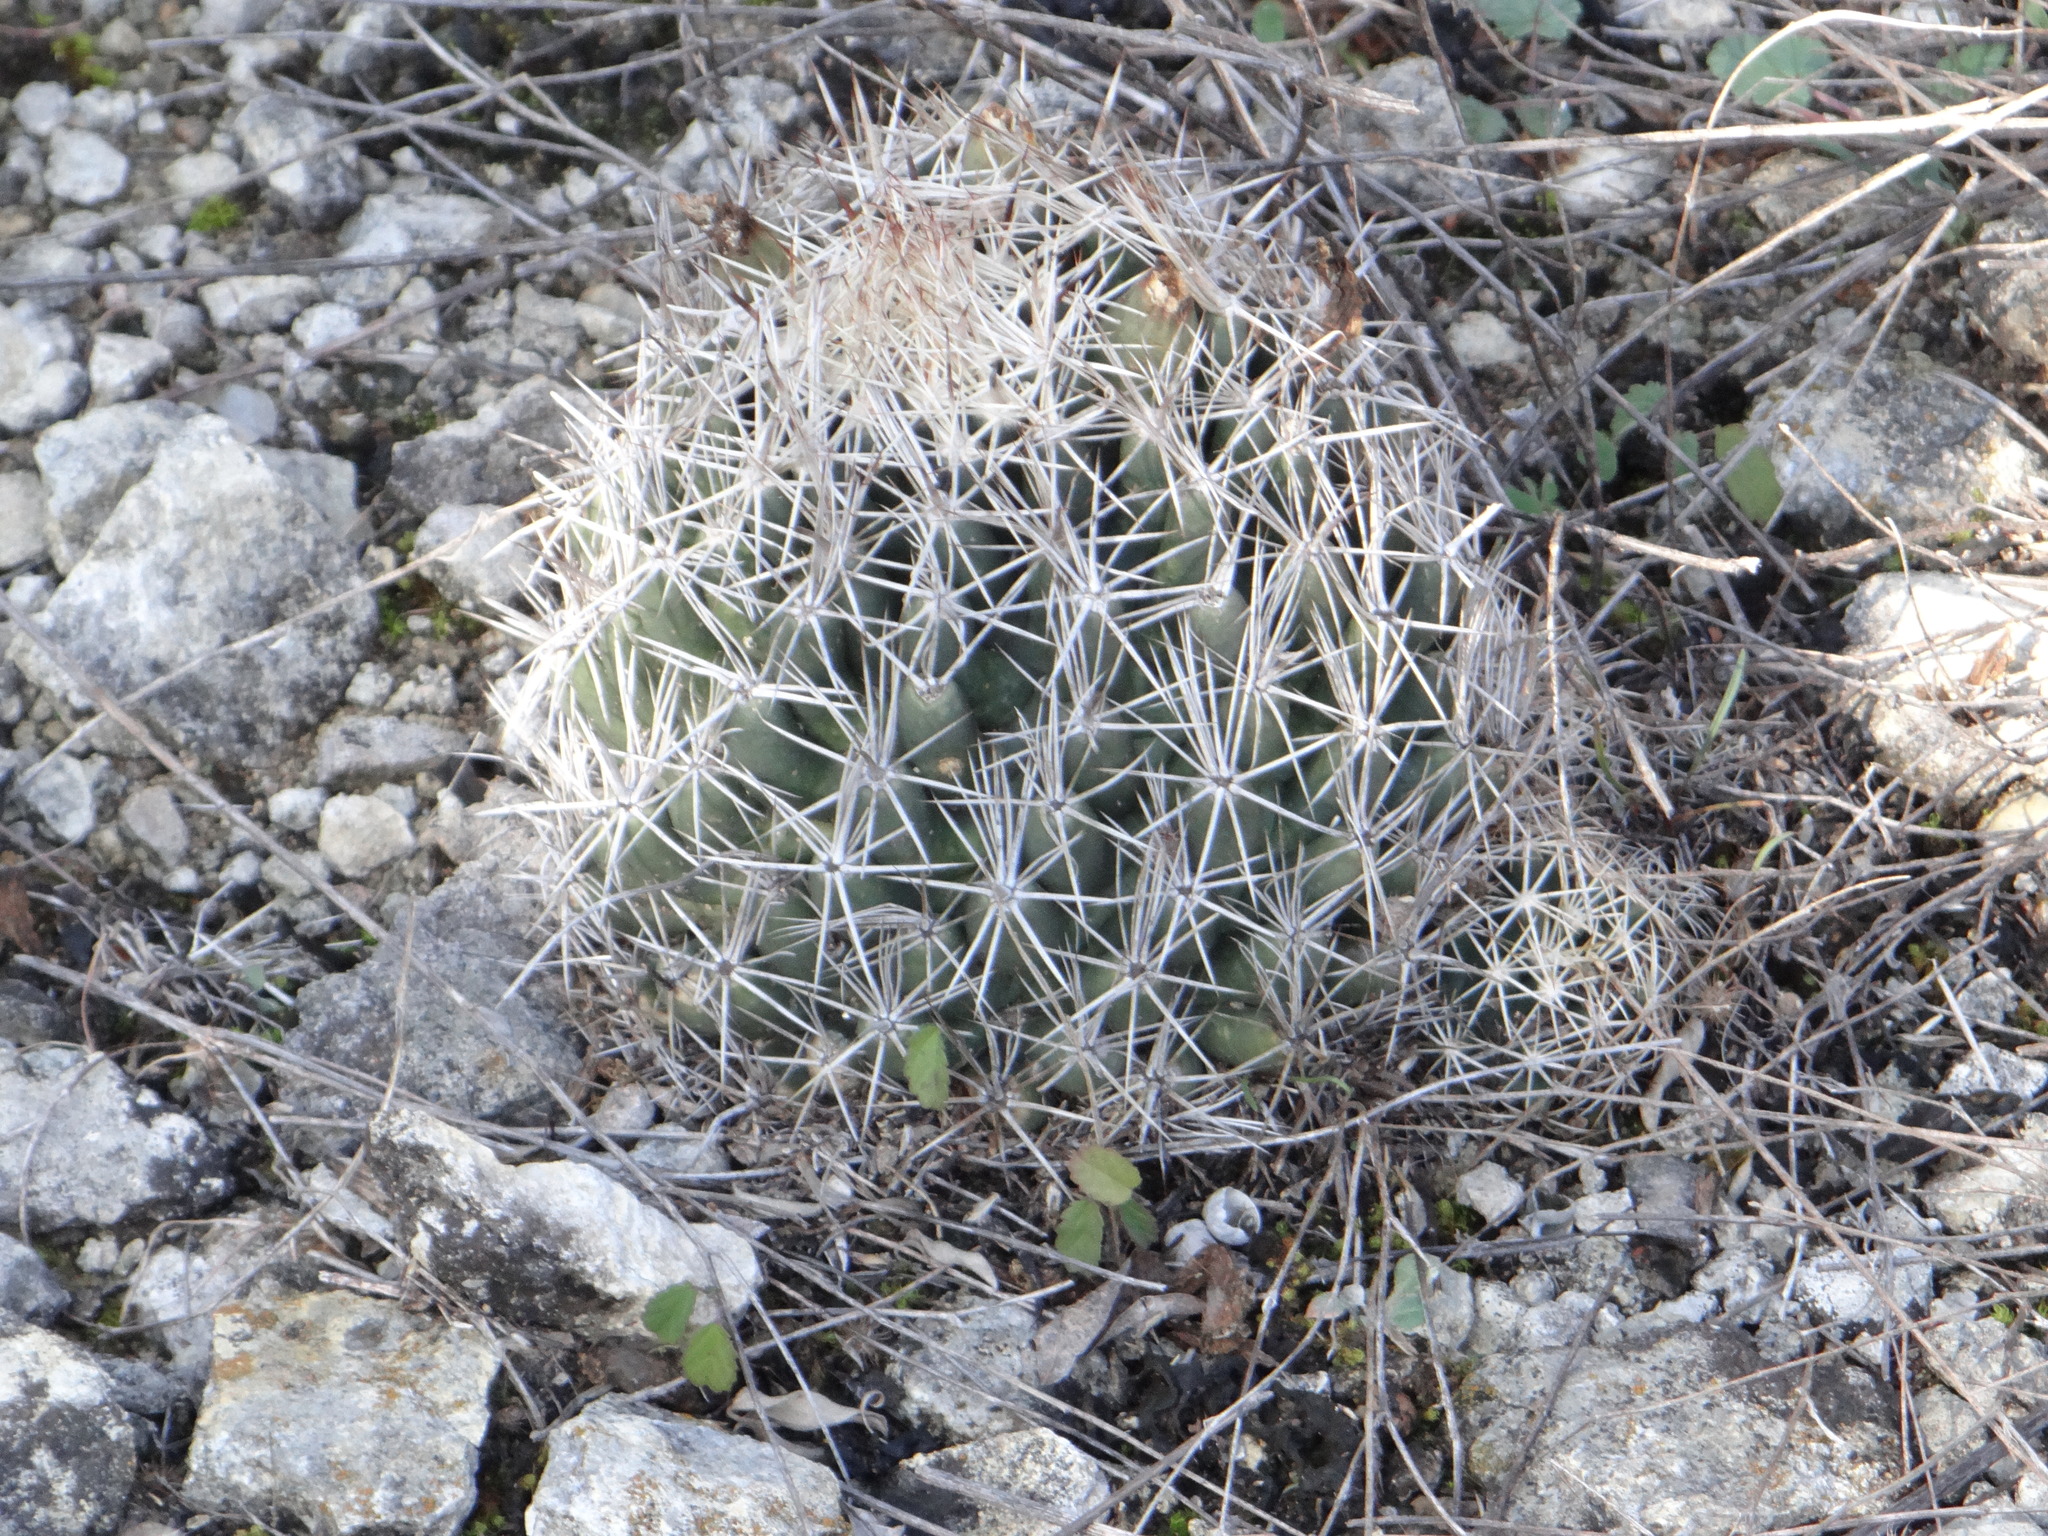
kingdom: Plantae
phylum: Tracheophyta
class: Magnoliopsida
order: Caryophyllales
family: Cactaceae
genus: Coryphantha
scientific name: Coryphantha sulcata
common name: Finger cactus
